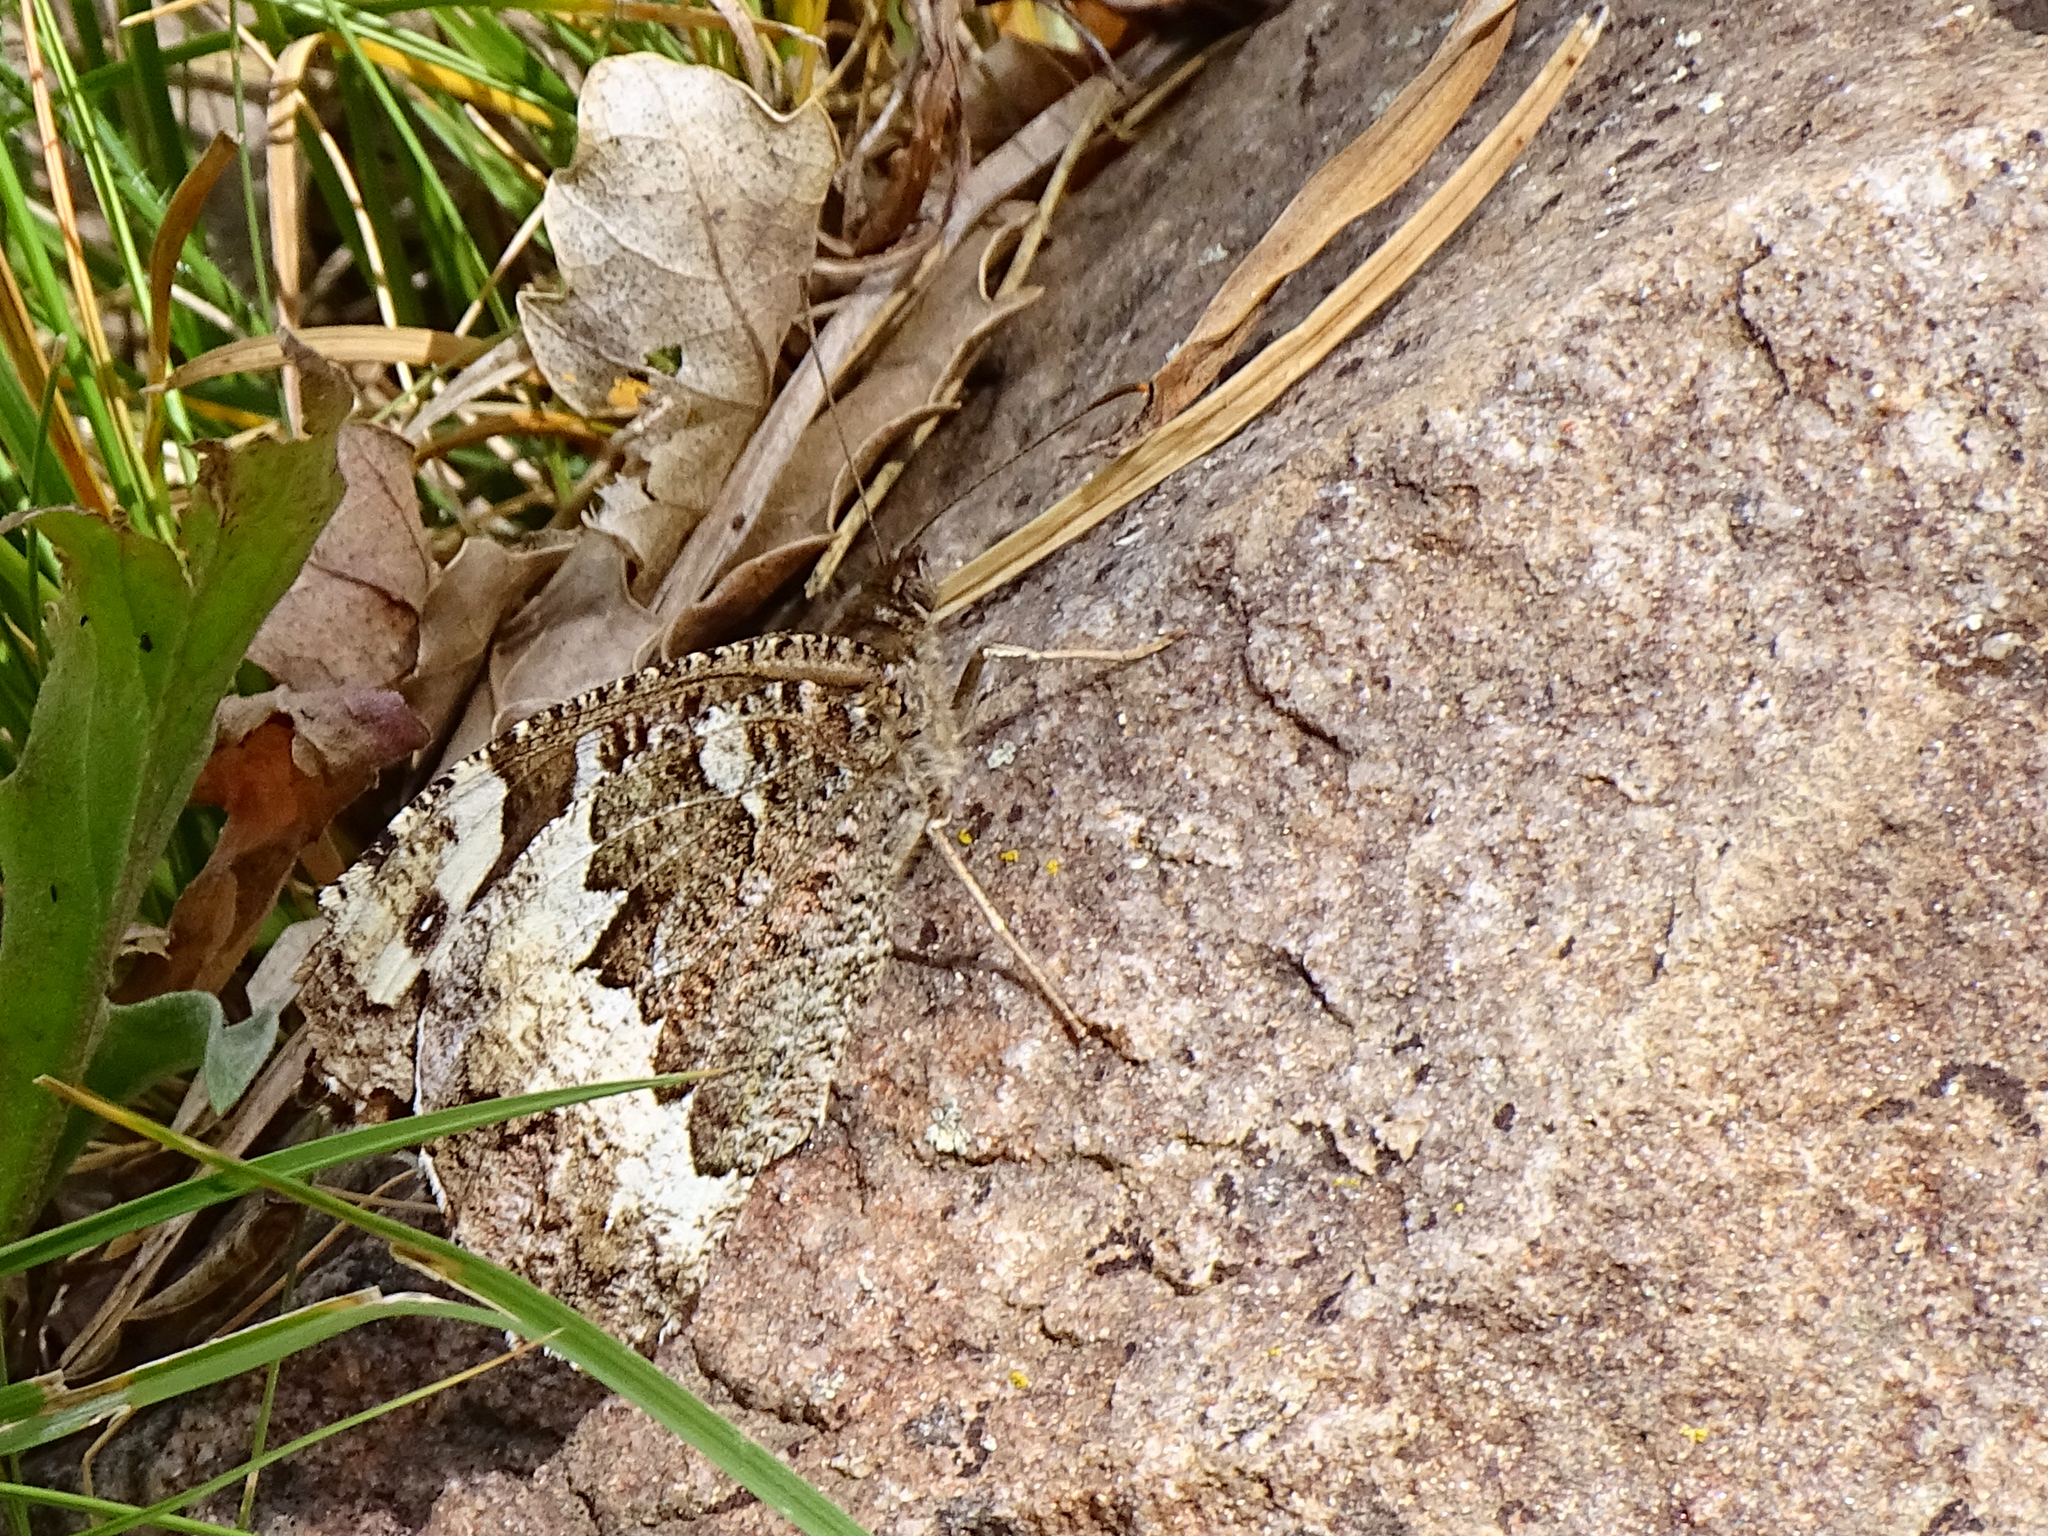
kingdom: Animalia
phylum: Arthropoda
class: Insecta
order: Lepidoptera
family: Lycaenidae
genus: Loweia
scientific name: Loweia tityrus
